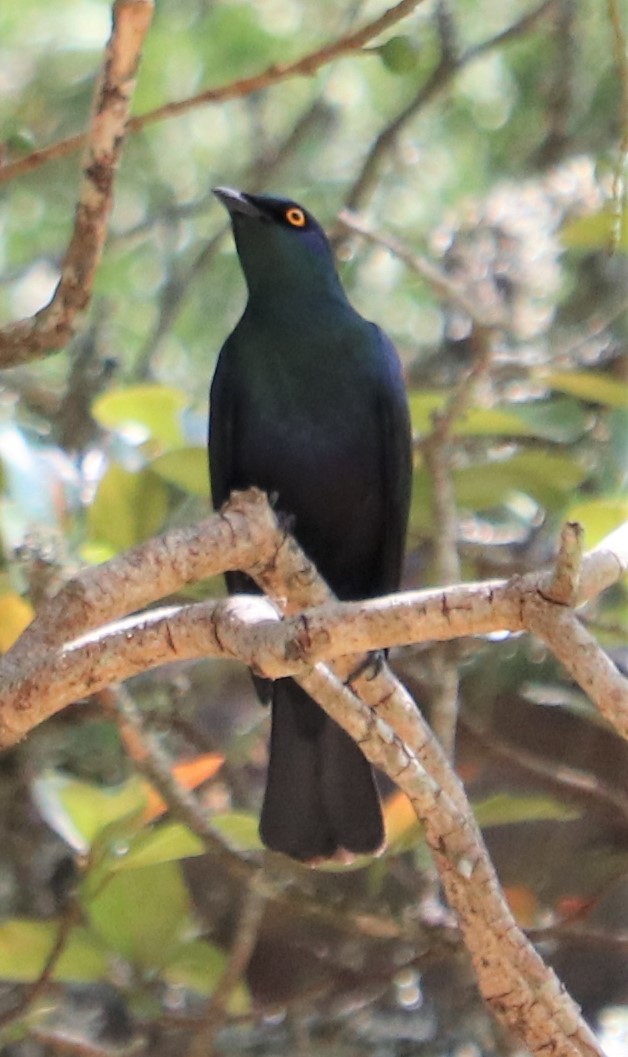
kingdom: Animalia
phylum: Chordata
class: Aves
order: Passeriformes
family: Sturnidae
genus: Notopholia
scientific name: Notopholia corrusca
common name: Black-bellied starling
